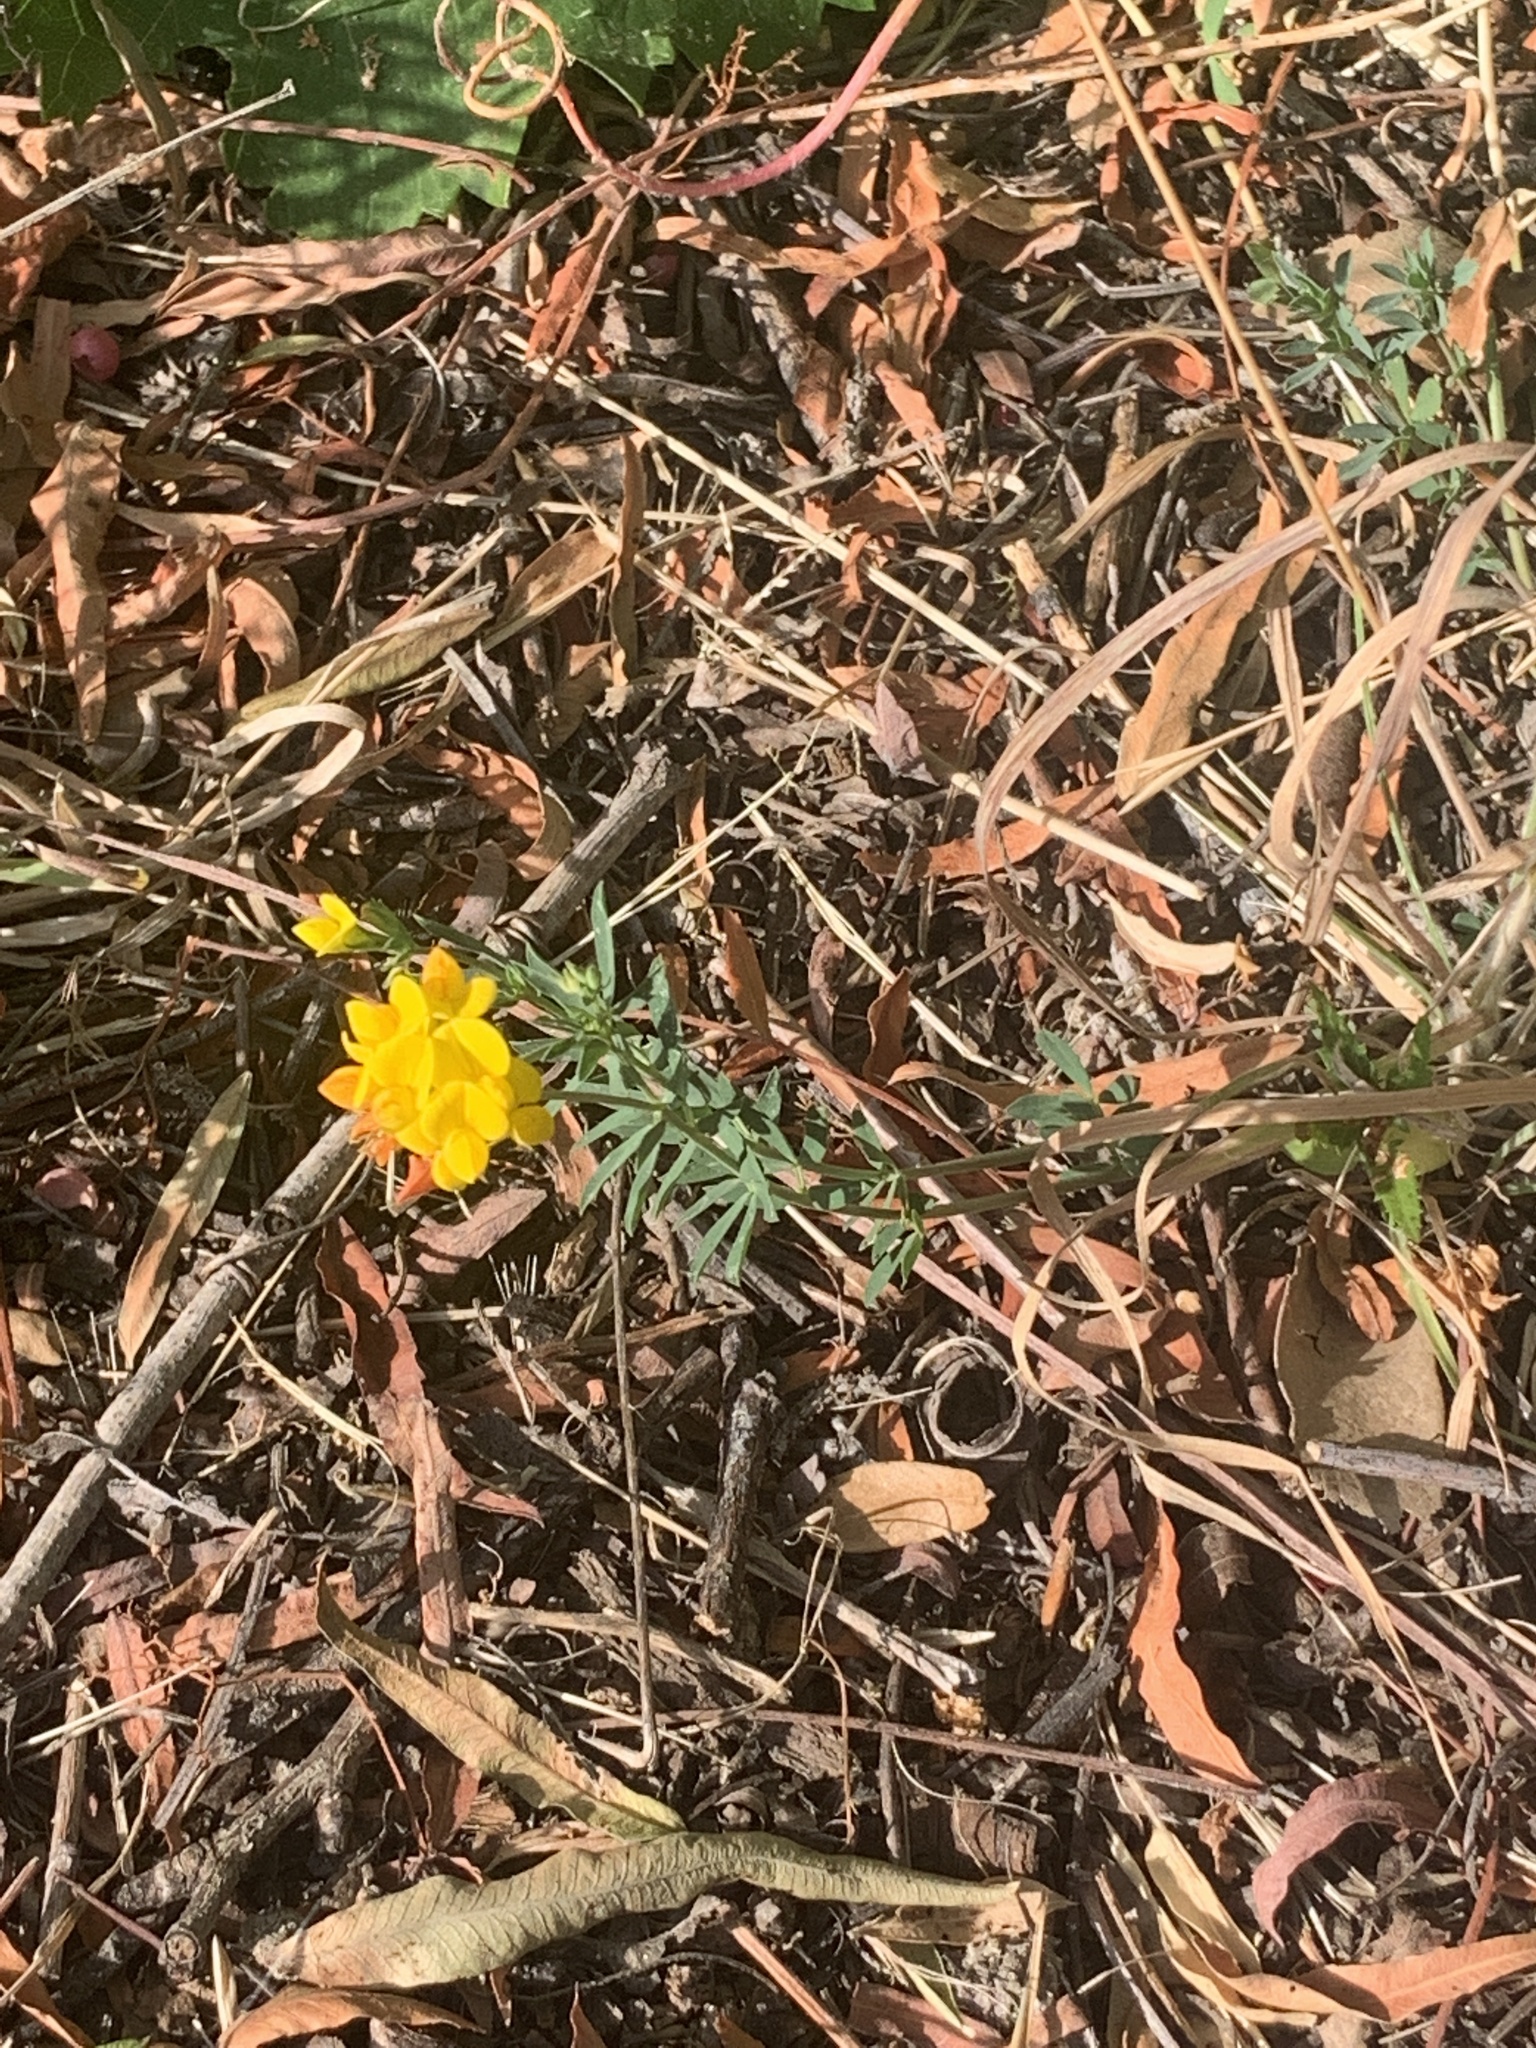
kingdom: Plantae
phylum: Tracheophyta
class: Magnoliopsida
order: Fabales
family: Fabaceae
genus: Lotus
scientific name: Lotus tenuis
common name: Narrow-leaved bird's-foot-trefoil
